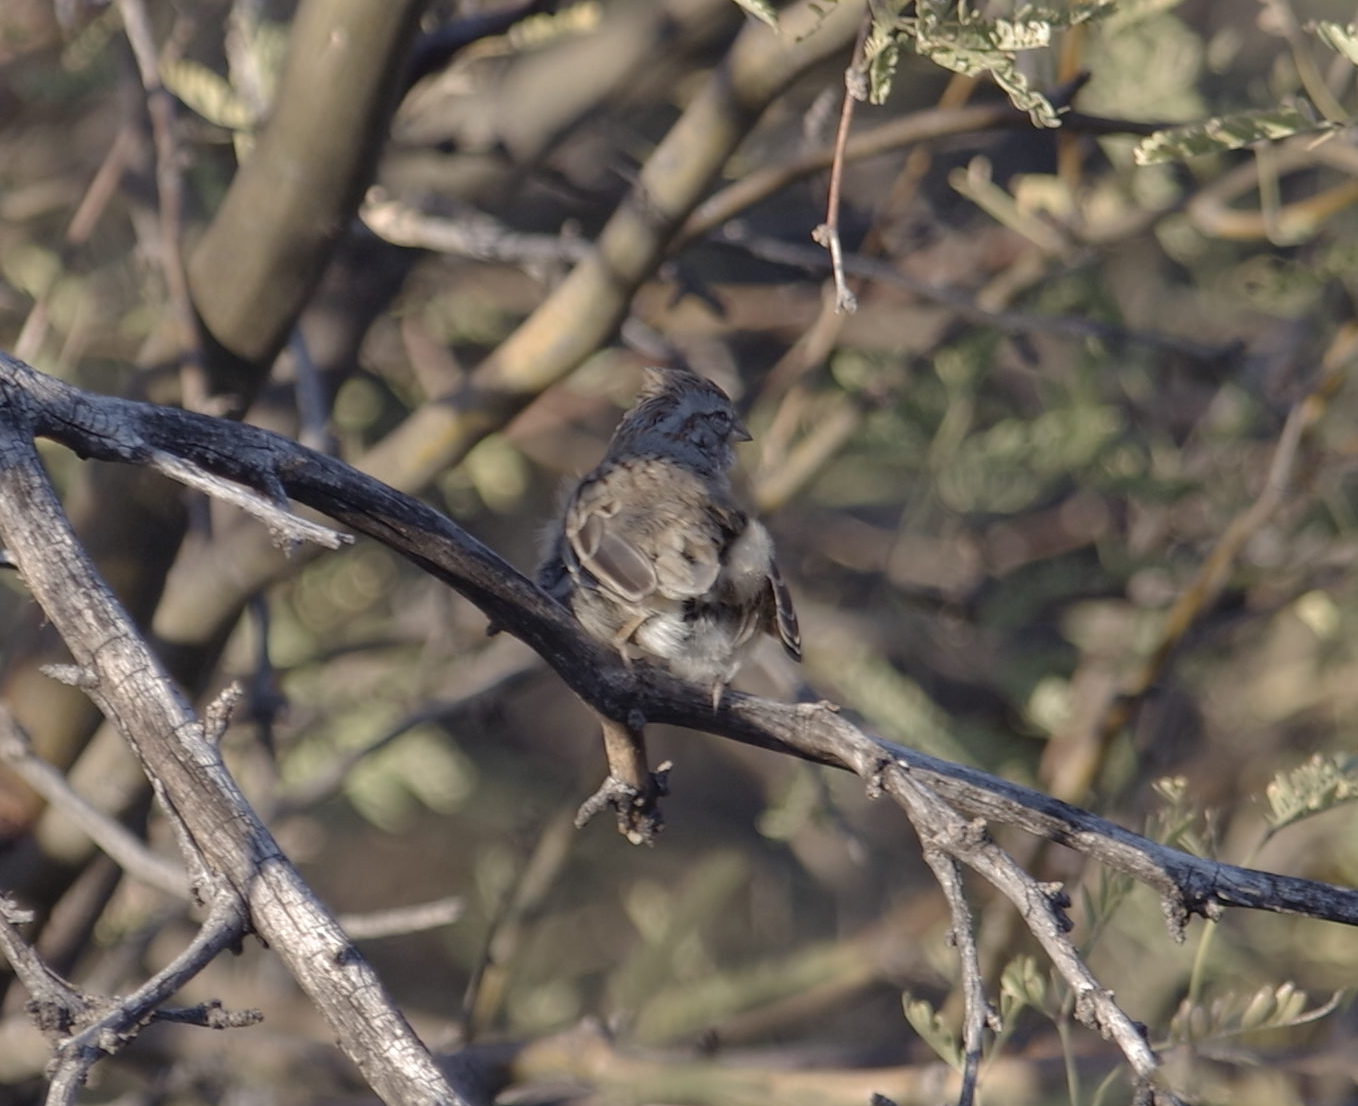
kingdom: Animalia
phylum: Chordata
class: Aves
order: Passeriformes
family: Passerellidae
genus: Peucaea
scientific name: Peucaea carpalis
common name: Rufous-winged sparrow
